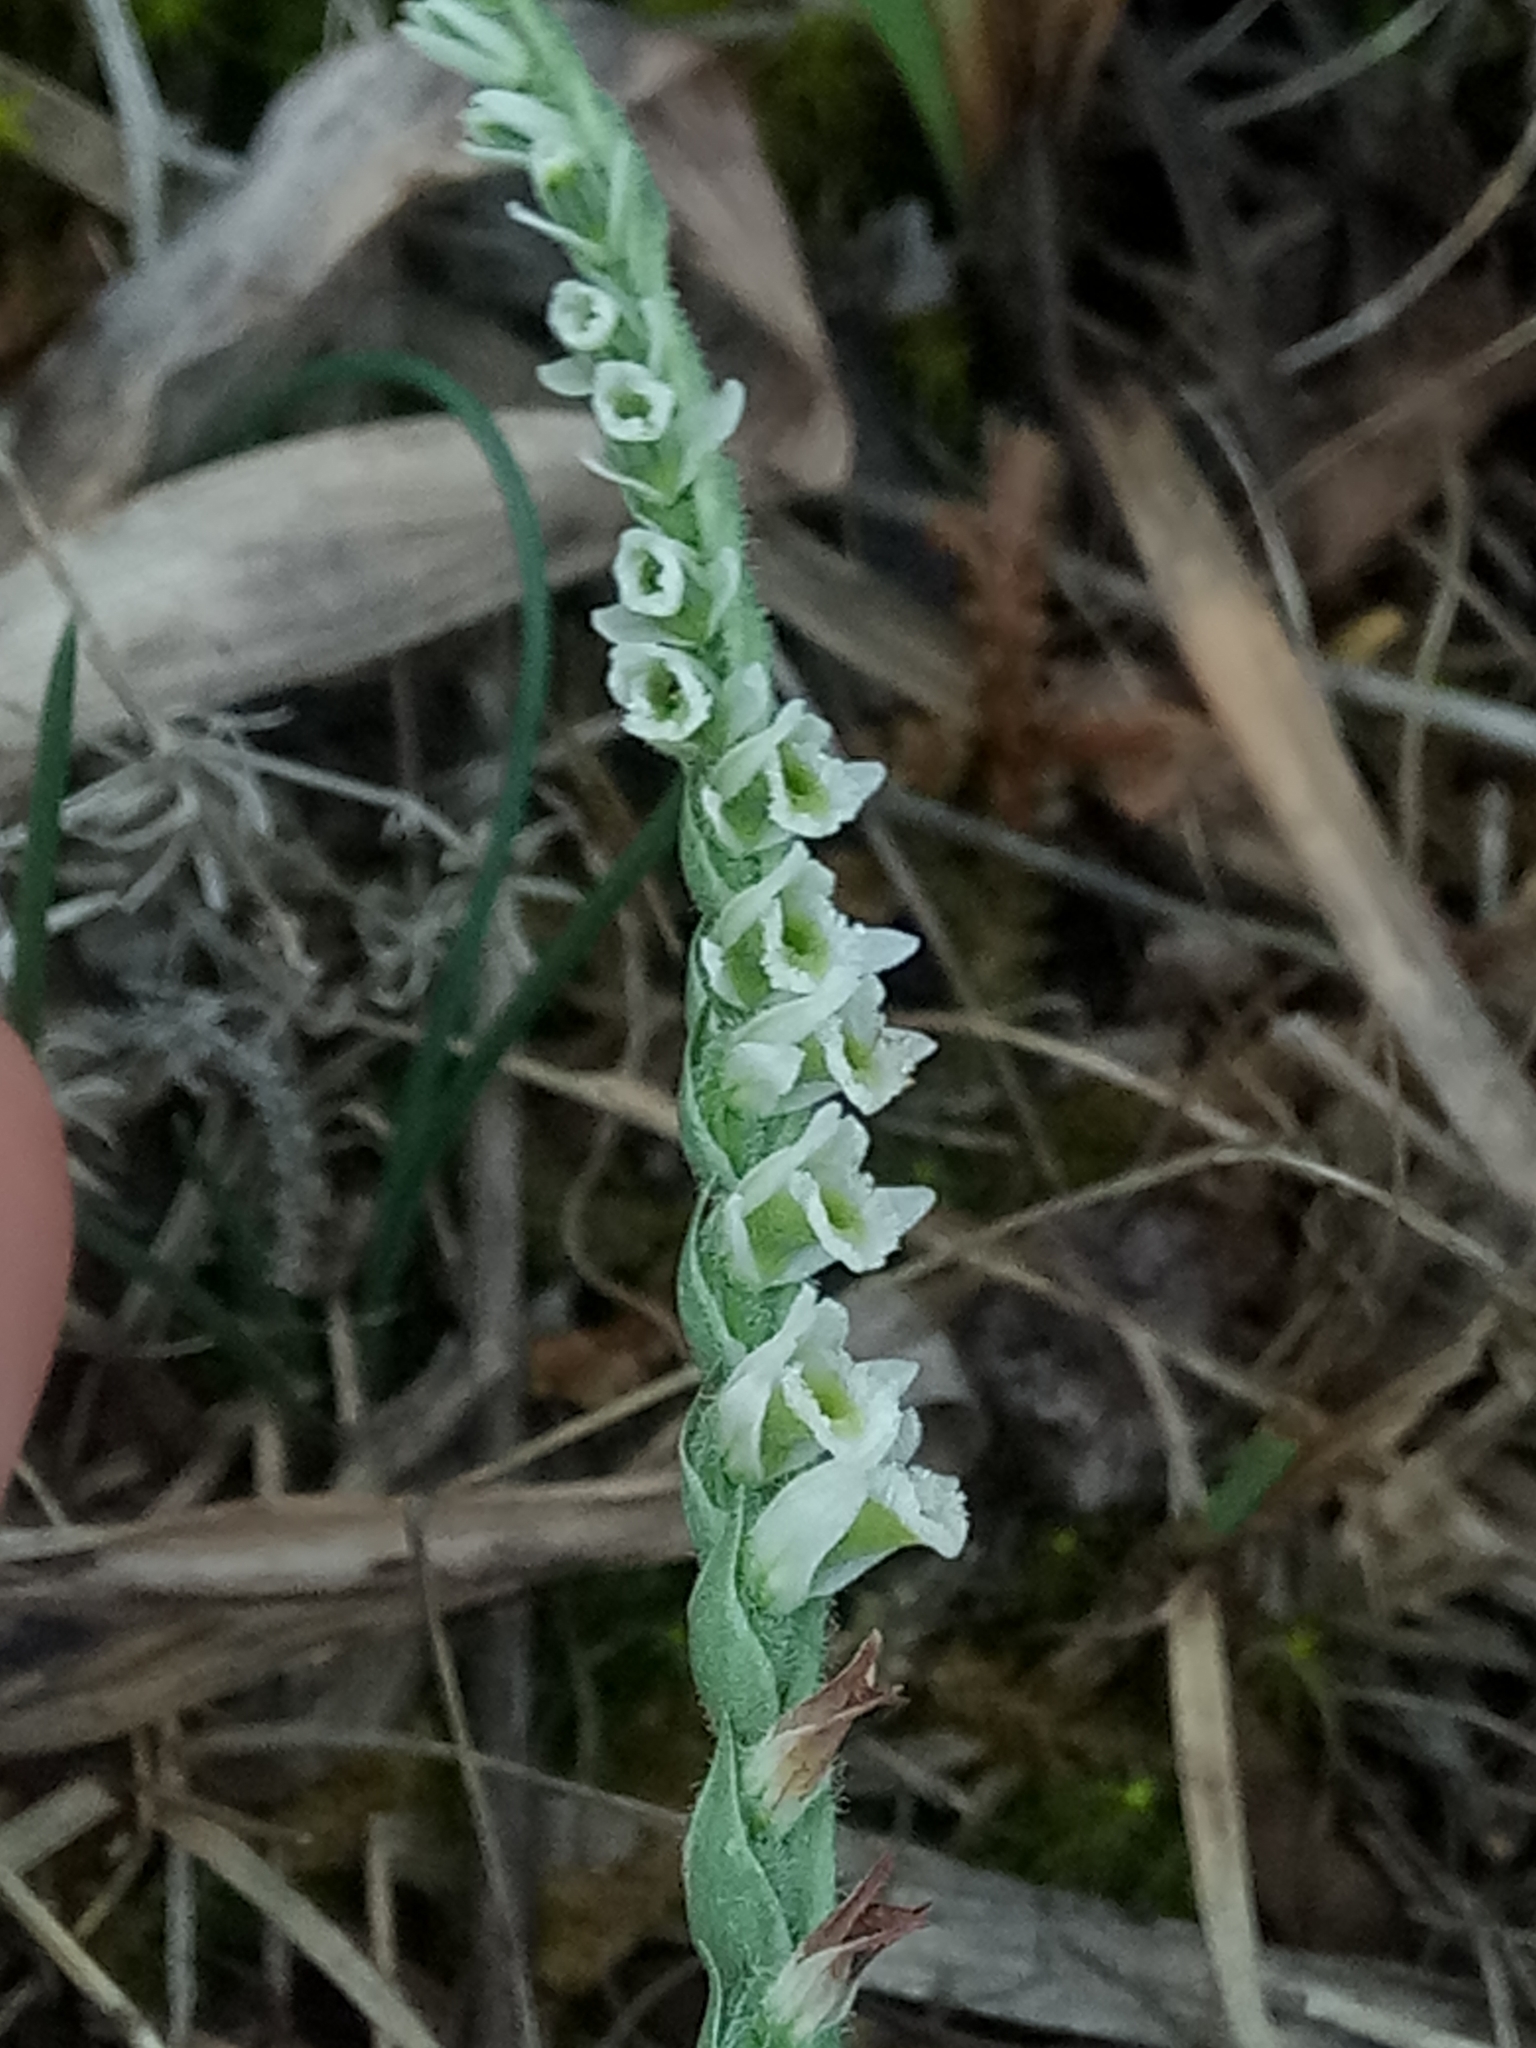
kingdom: Plantae
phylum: Tracheophyta
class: Liliopsida
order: Asparagales
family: Orchidaceae
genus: Spiranthes
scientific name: Spiranthes spiralis
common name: Autumn lady's-tresses
